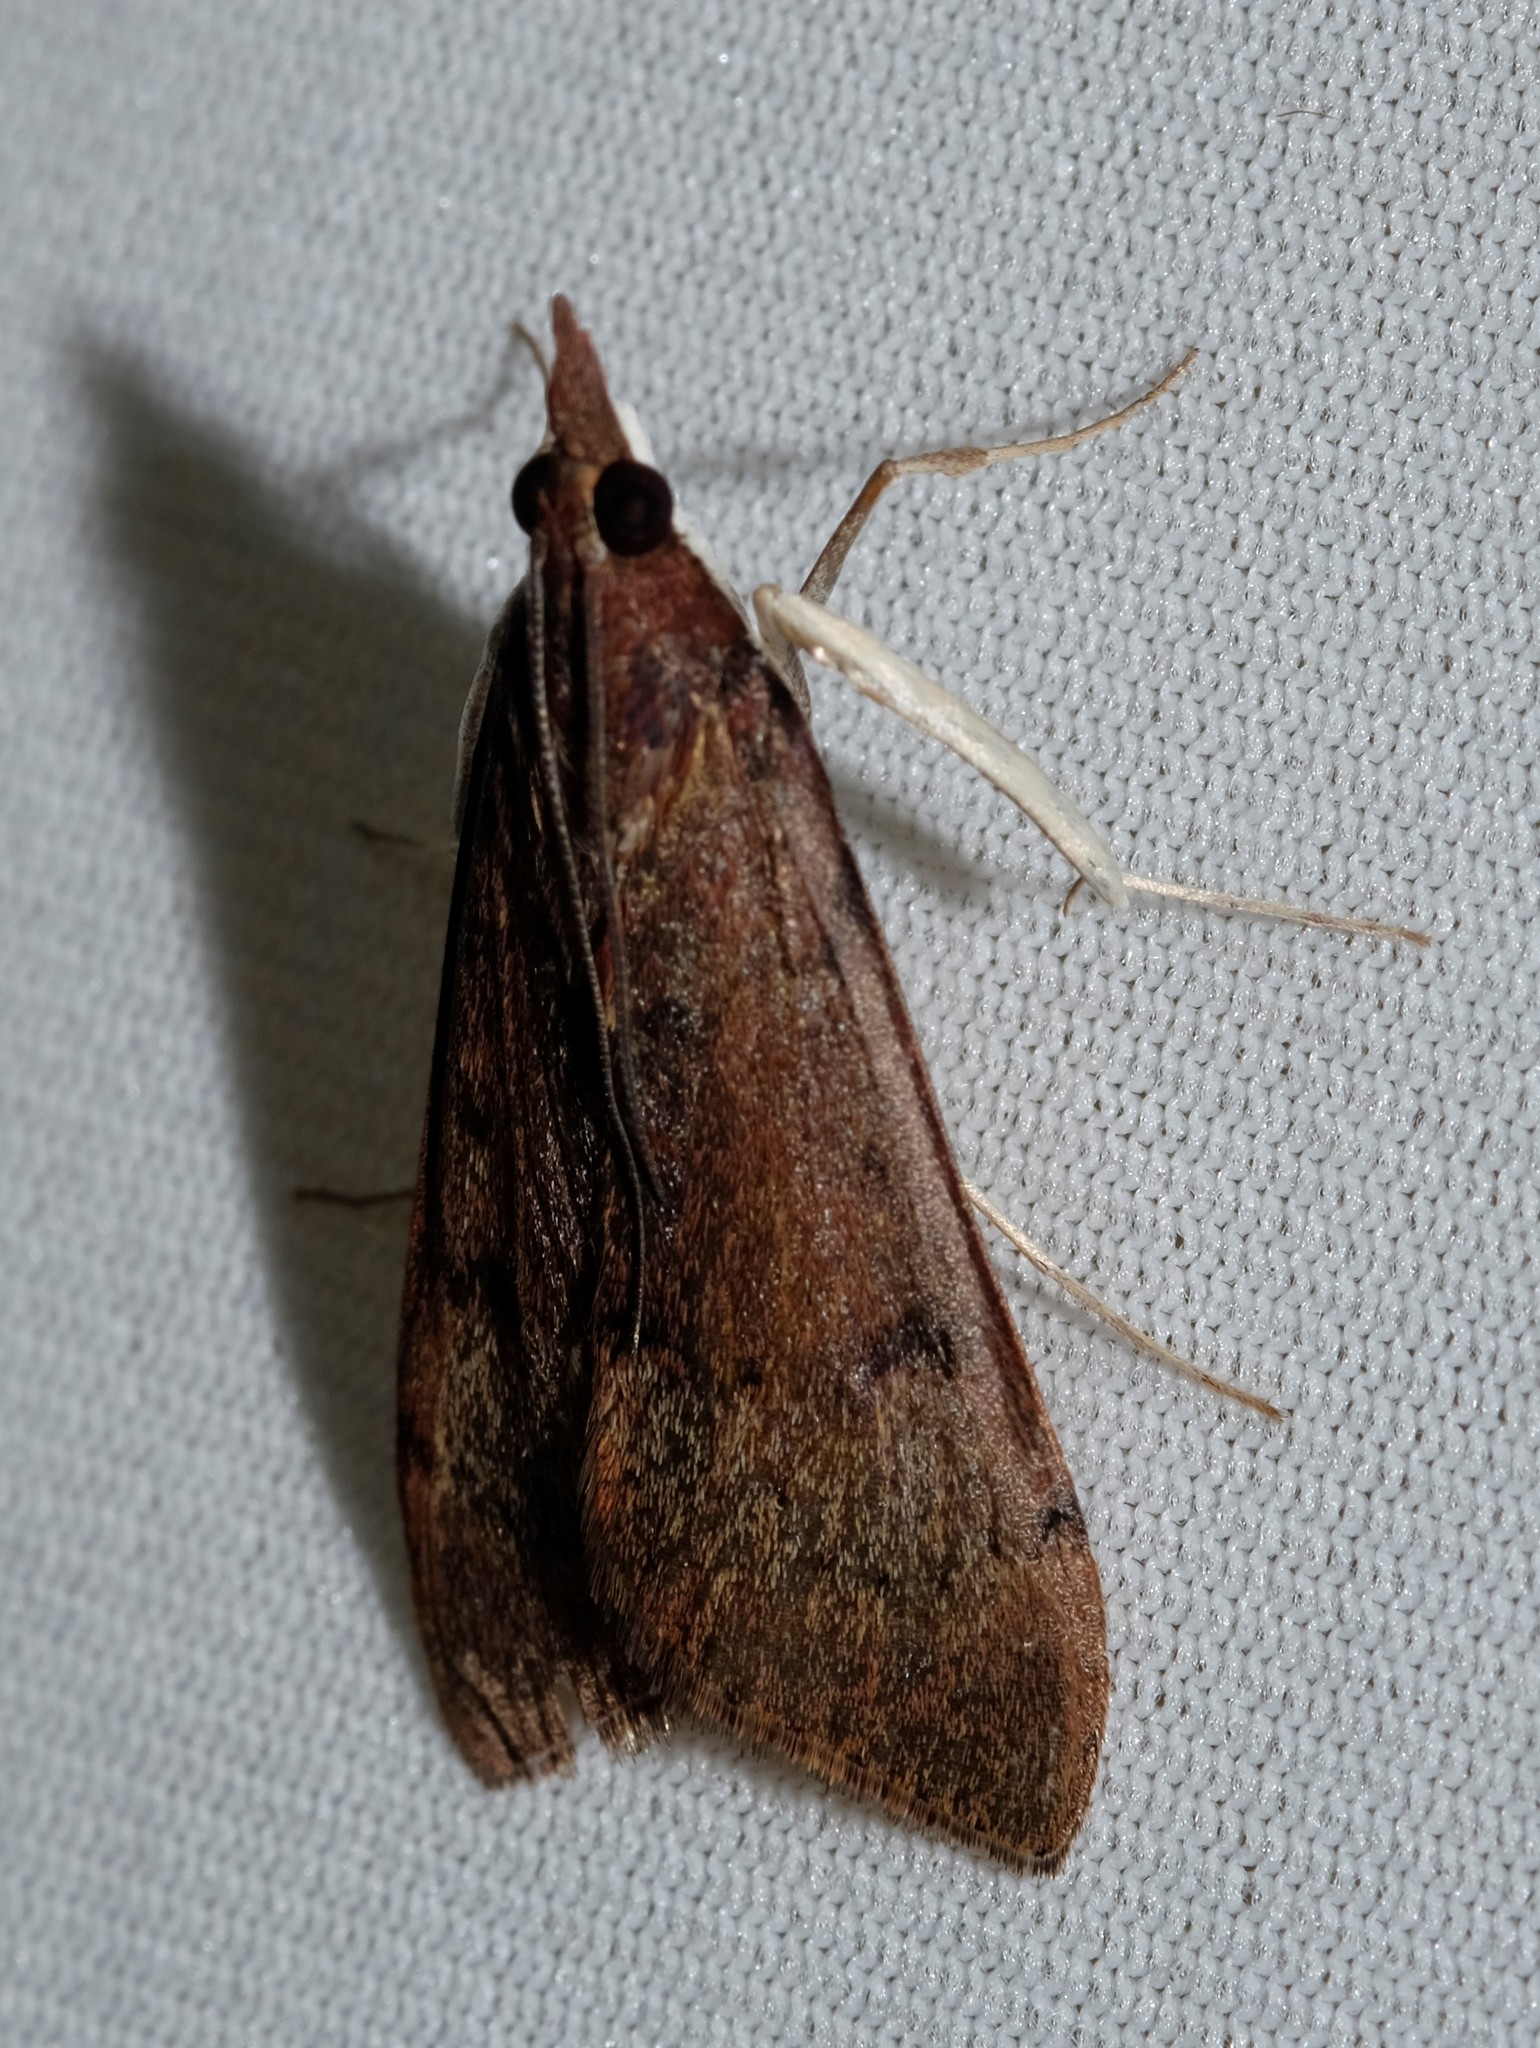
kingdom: Animalia
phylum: Arthropoda
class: Insecta
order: Lepidoptera
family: Crambidae
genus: Uresiphita
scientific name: Uresiphita ornithopteralis
